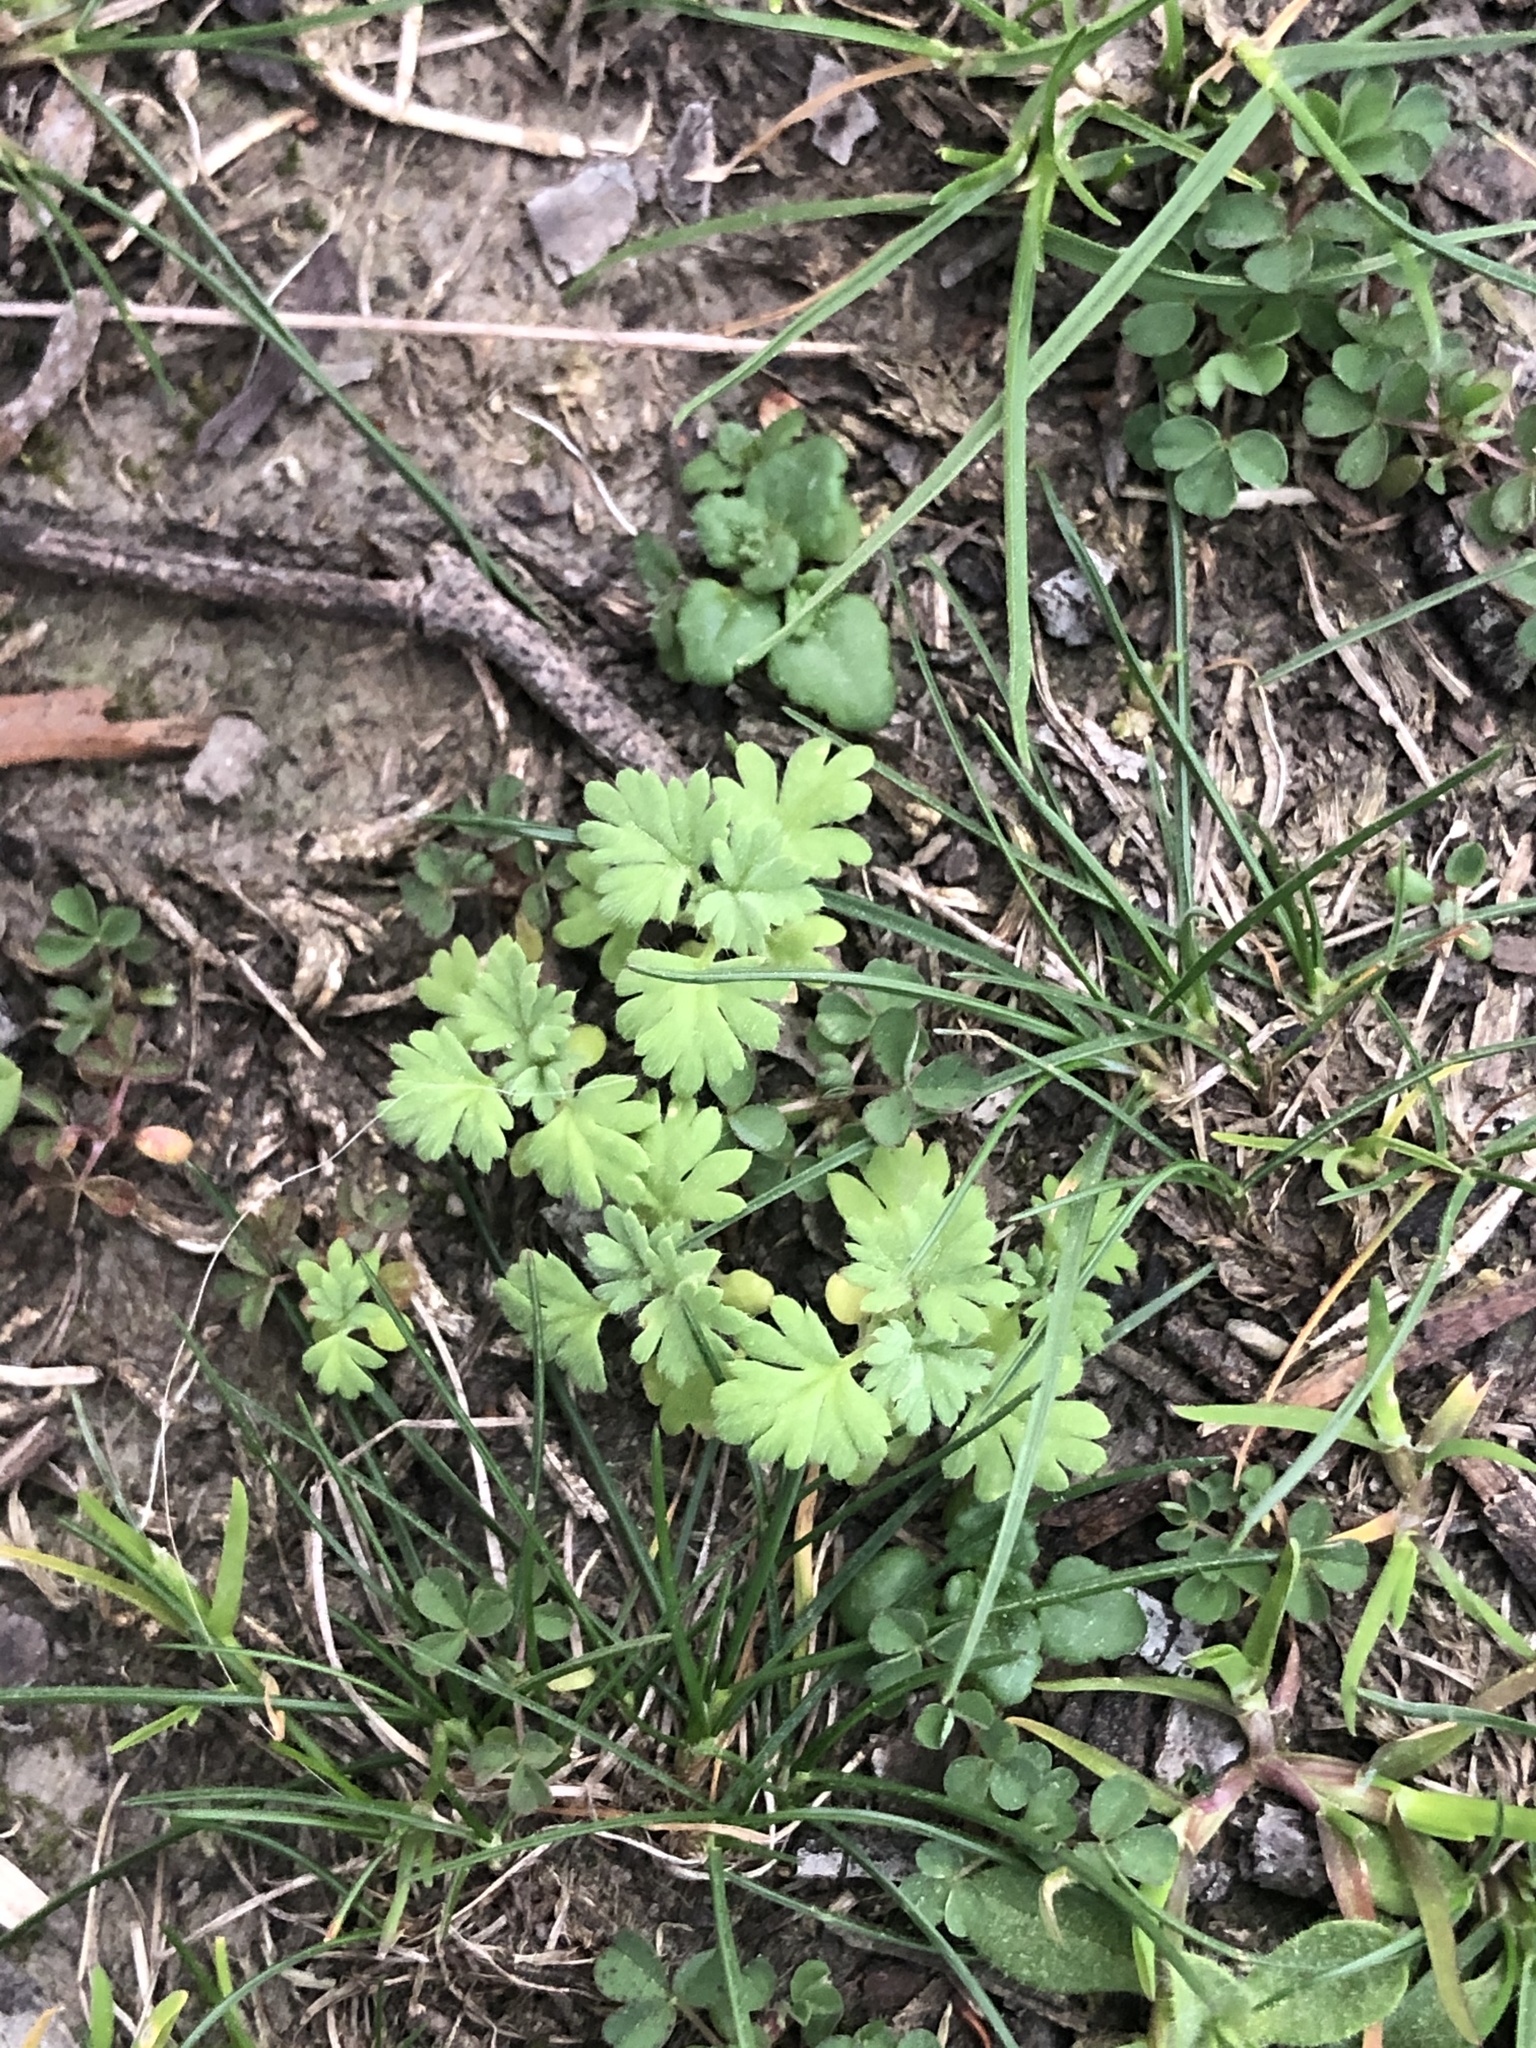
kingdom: Plantae
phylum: Tracheophyta
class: Magnoliopsida
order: Rosales
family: Rosaceae
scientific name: Rosaceae
